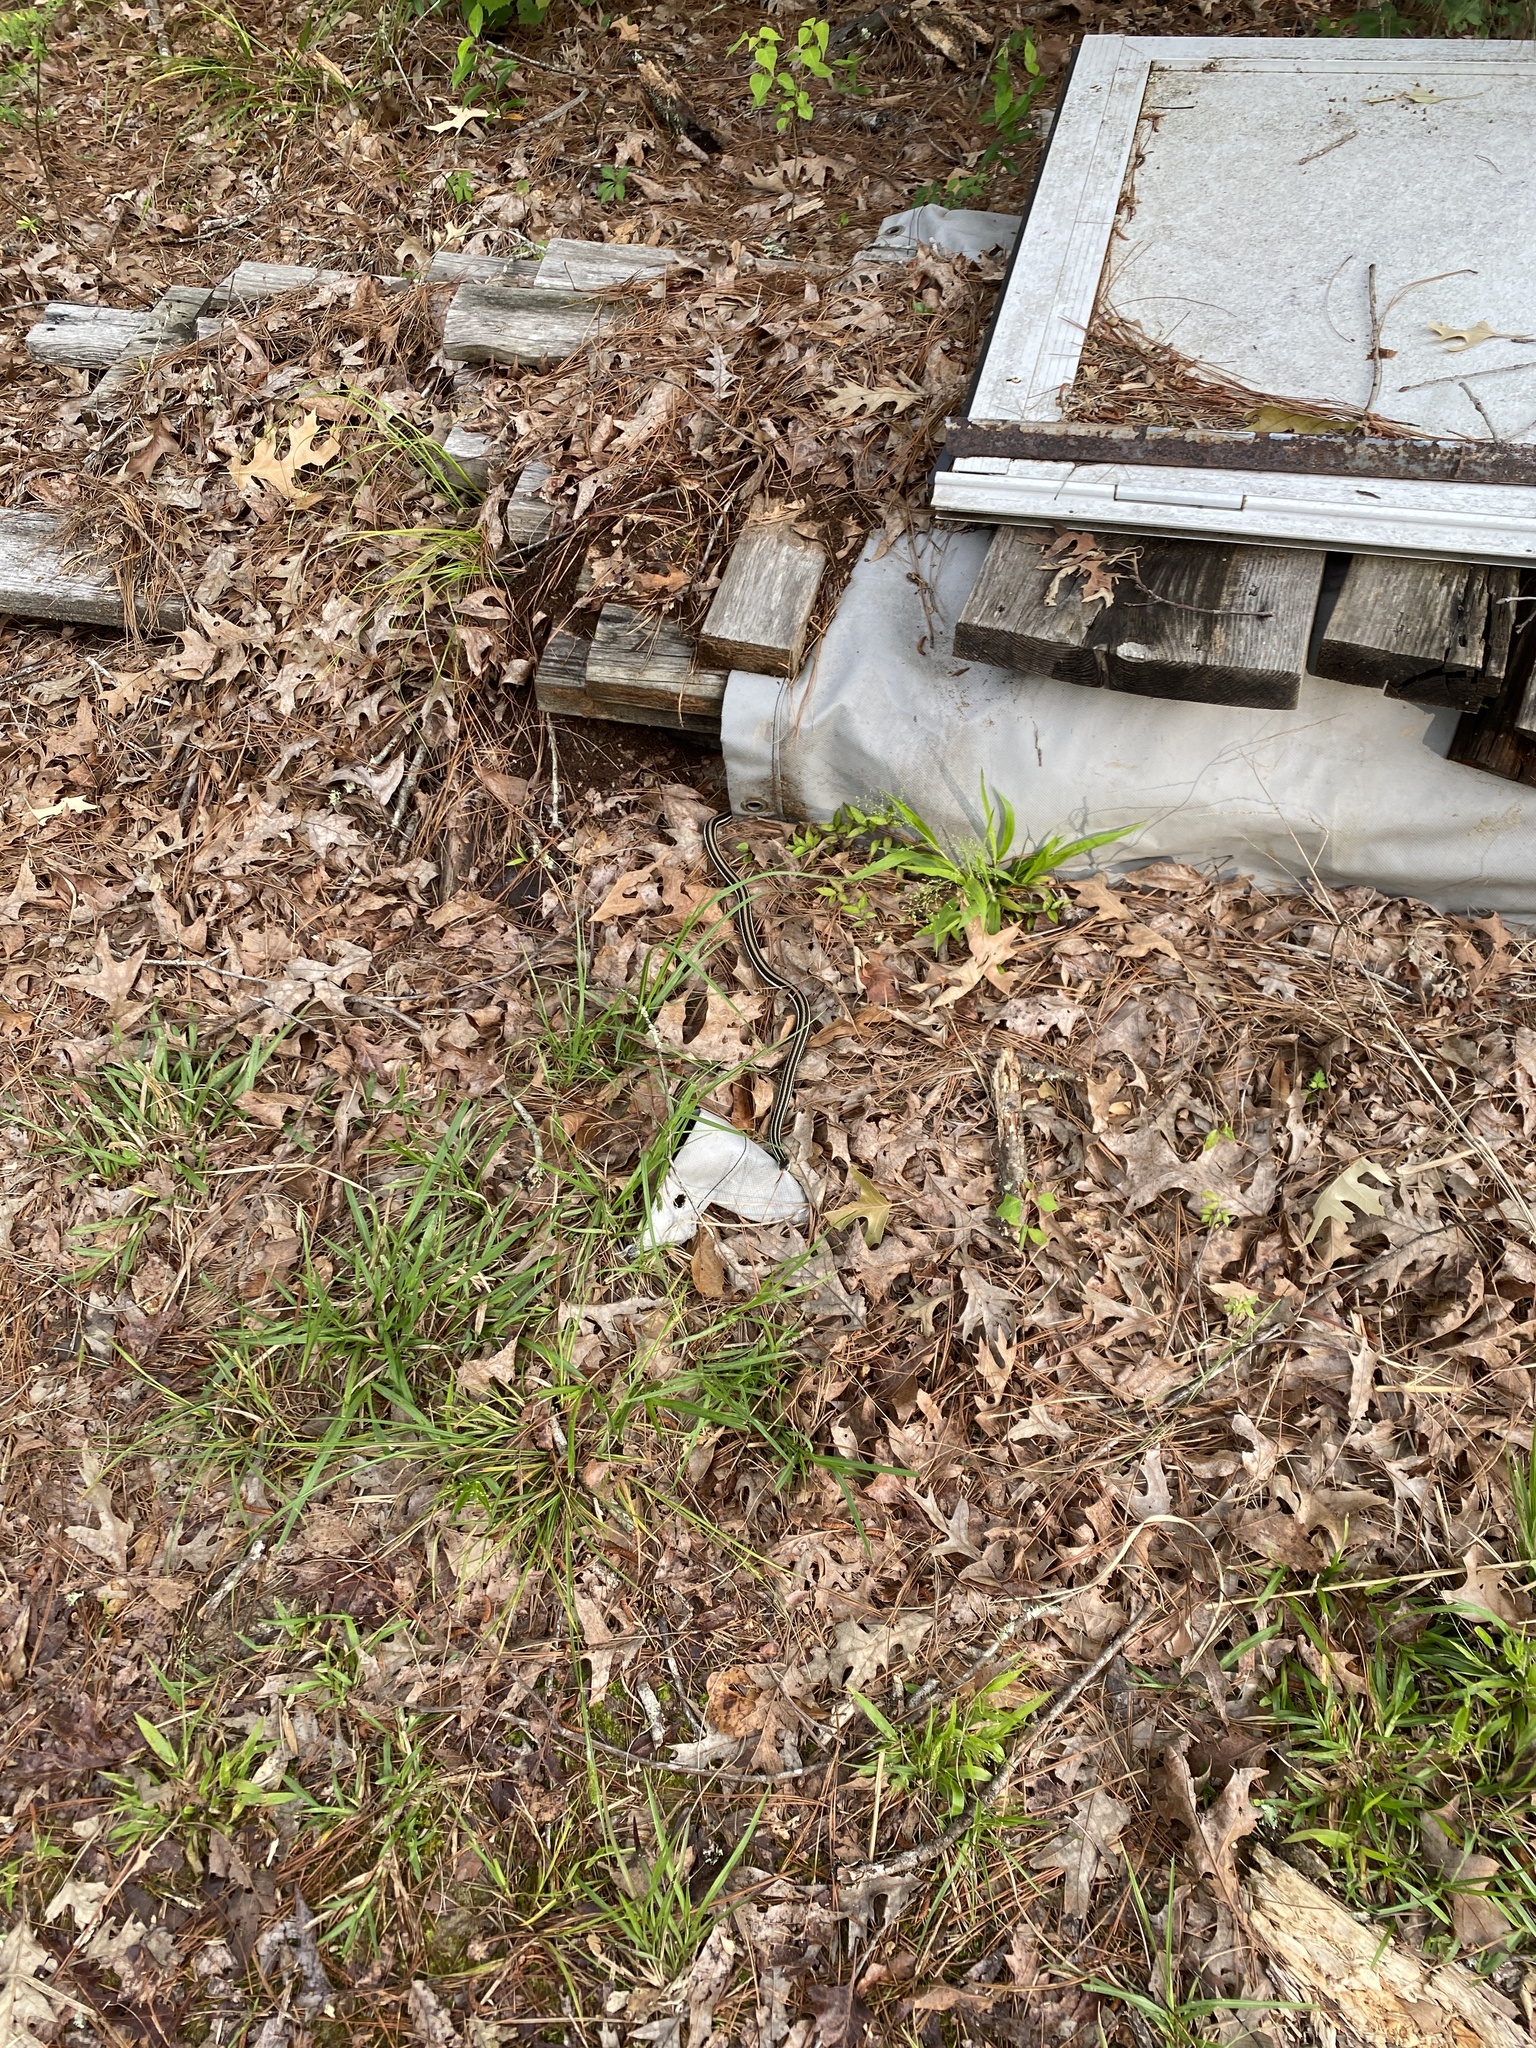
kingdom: Animalia
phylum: Chordata
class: Squamata
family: Colubridae
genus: Thamnophis
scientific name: Thamnophis proximus
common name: Western ribbon snake
